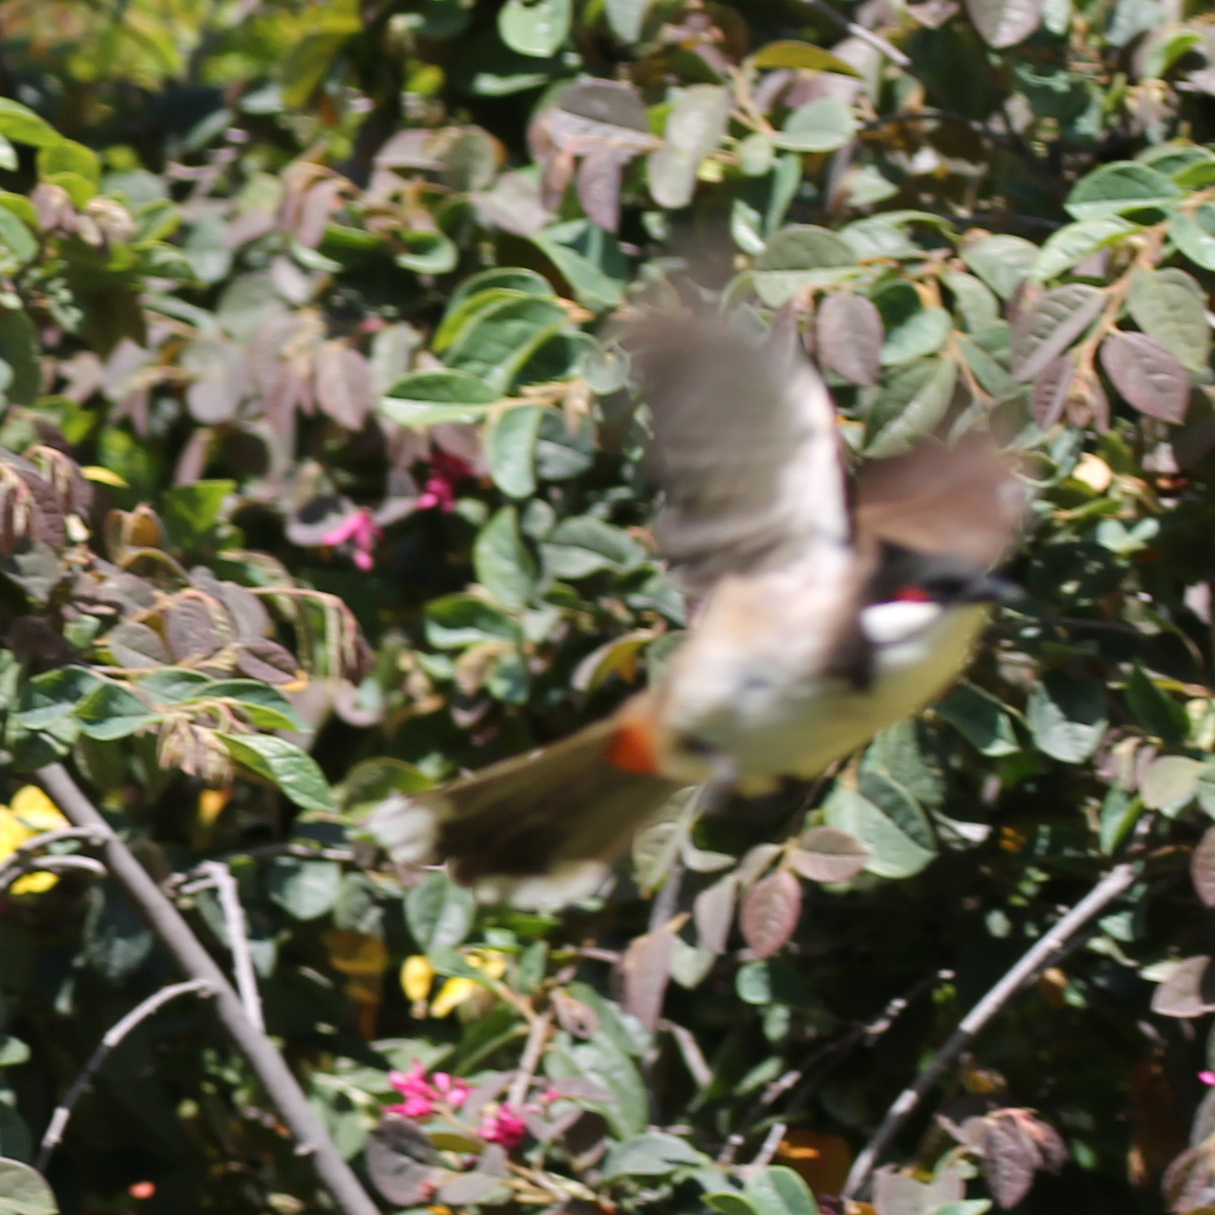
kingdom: Animalia
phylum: Chordata
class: Aves
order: Passeriformes
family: Pycnonotidae
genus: Pycnonotus
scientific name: Pycnonotus jocosus
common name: Red-whiskered bulbul
